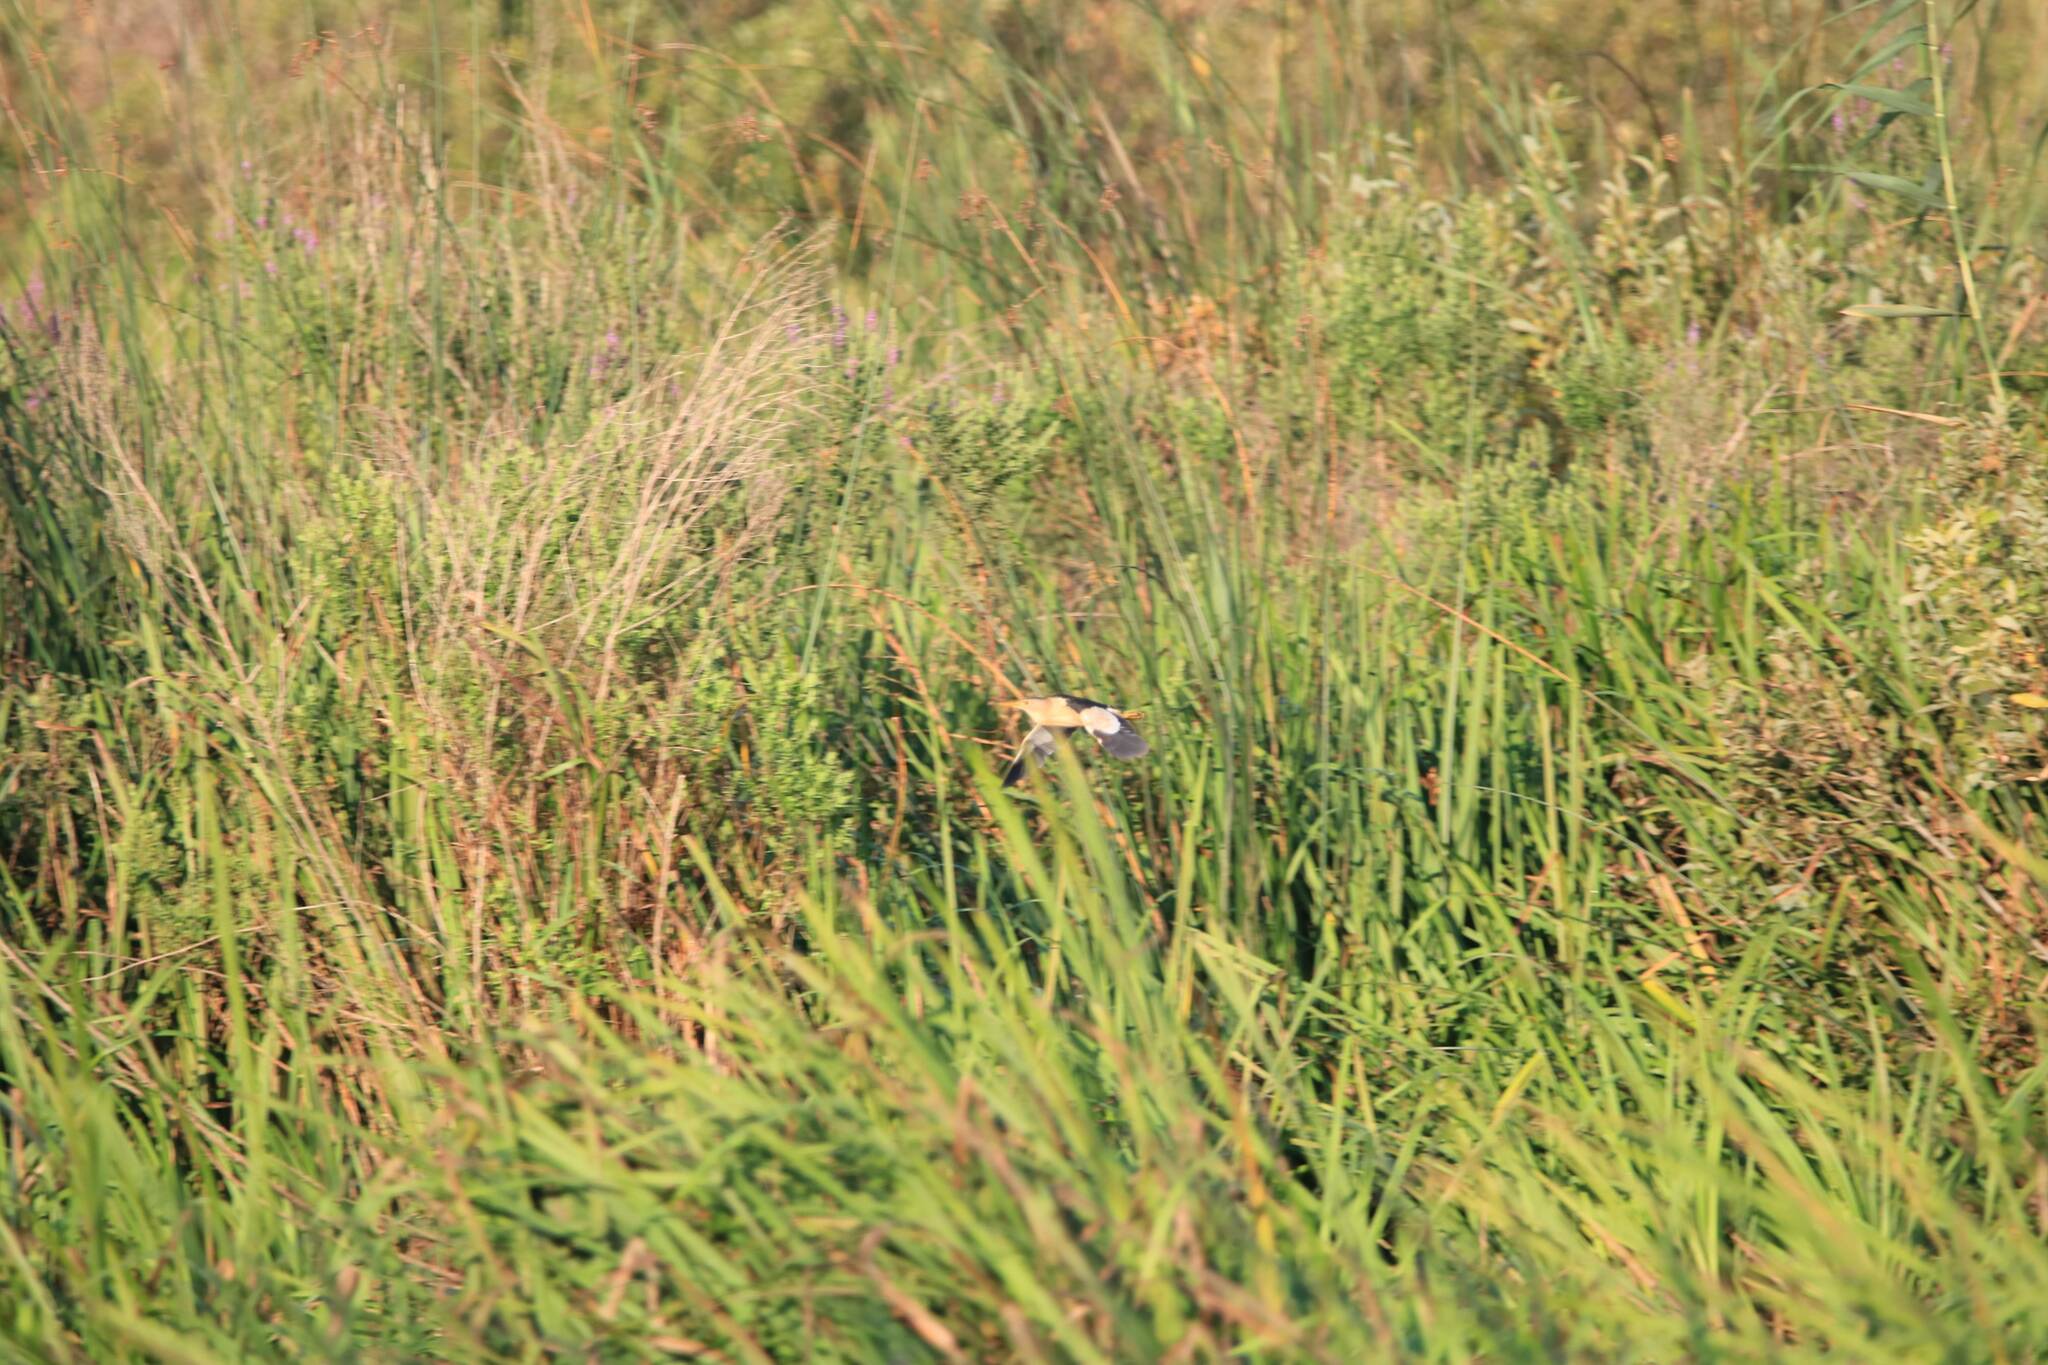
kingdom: Animalia
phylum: Chordata
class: Aves
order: Pelecaniformes
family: Ardeidae
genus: Ixobrychus
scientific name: Ixobrychus minutus
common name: Little bittern
